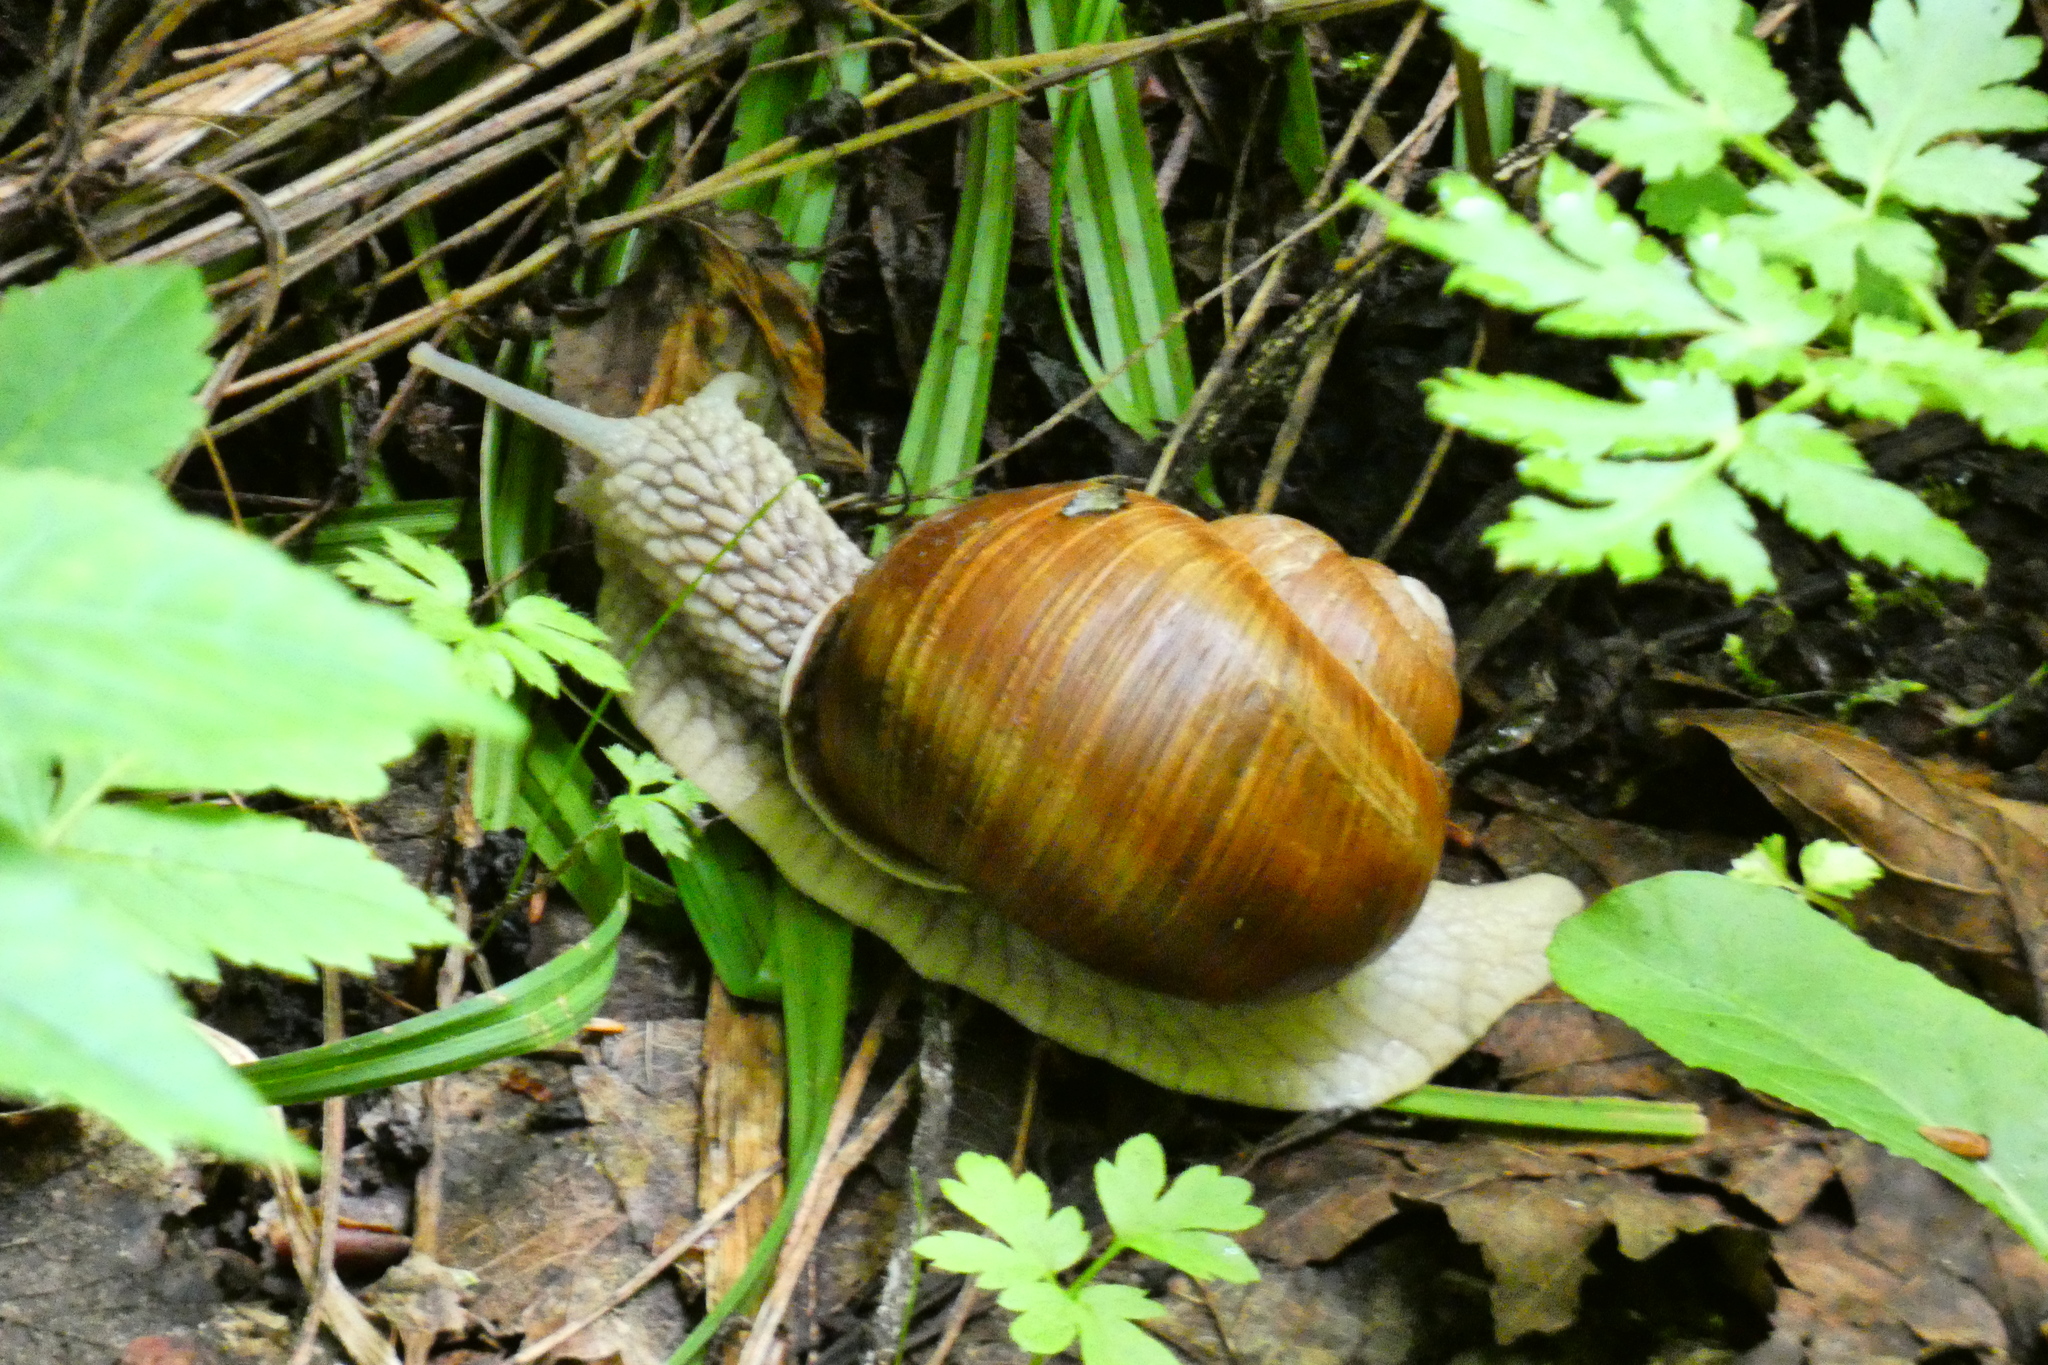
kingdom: Animalia
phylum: Mollusca
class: Gastropoda
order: Stylommatophora
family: Helicidae
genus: Helix
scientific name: Helix pomatia
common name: Roman snail
